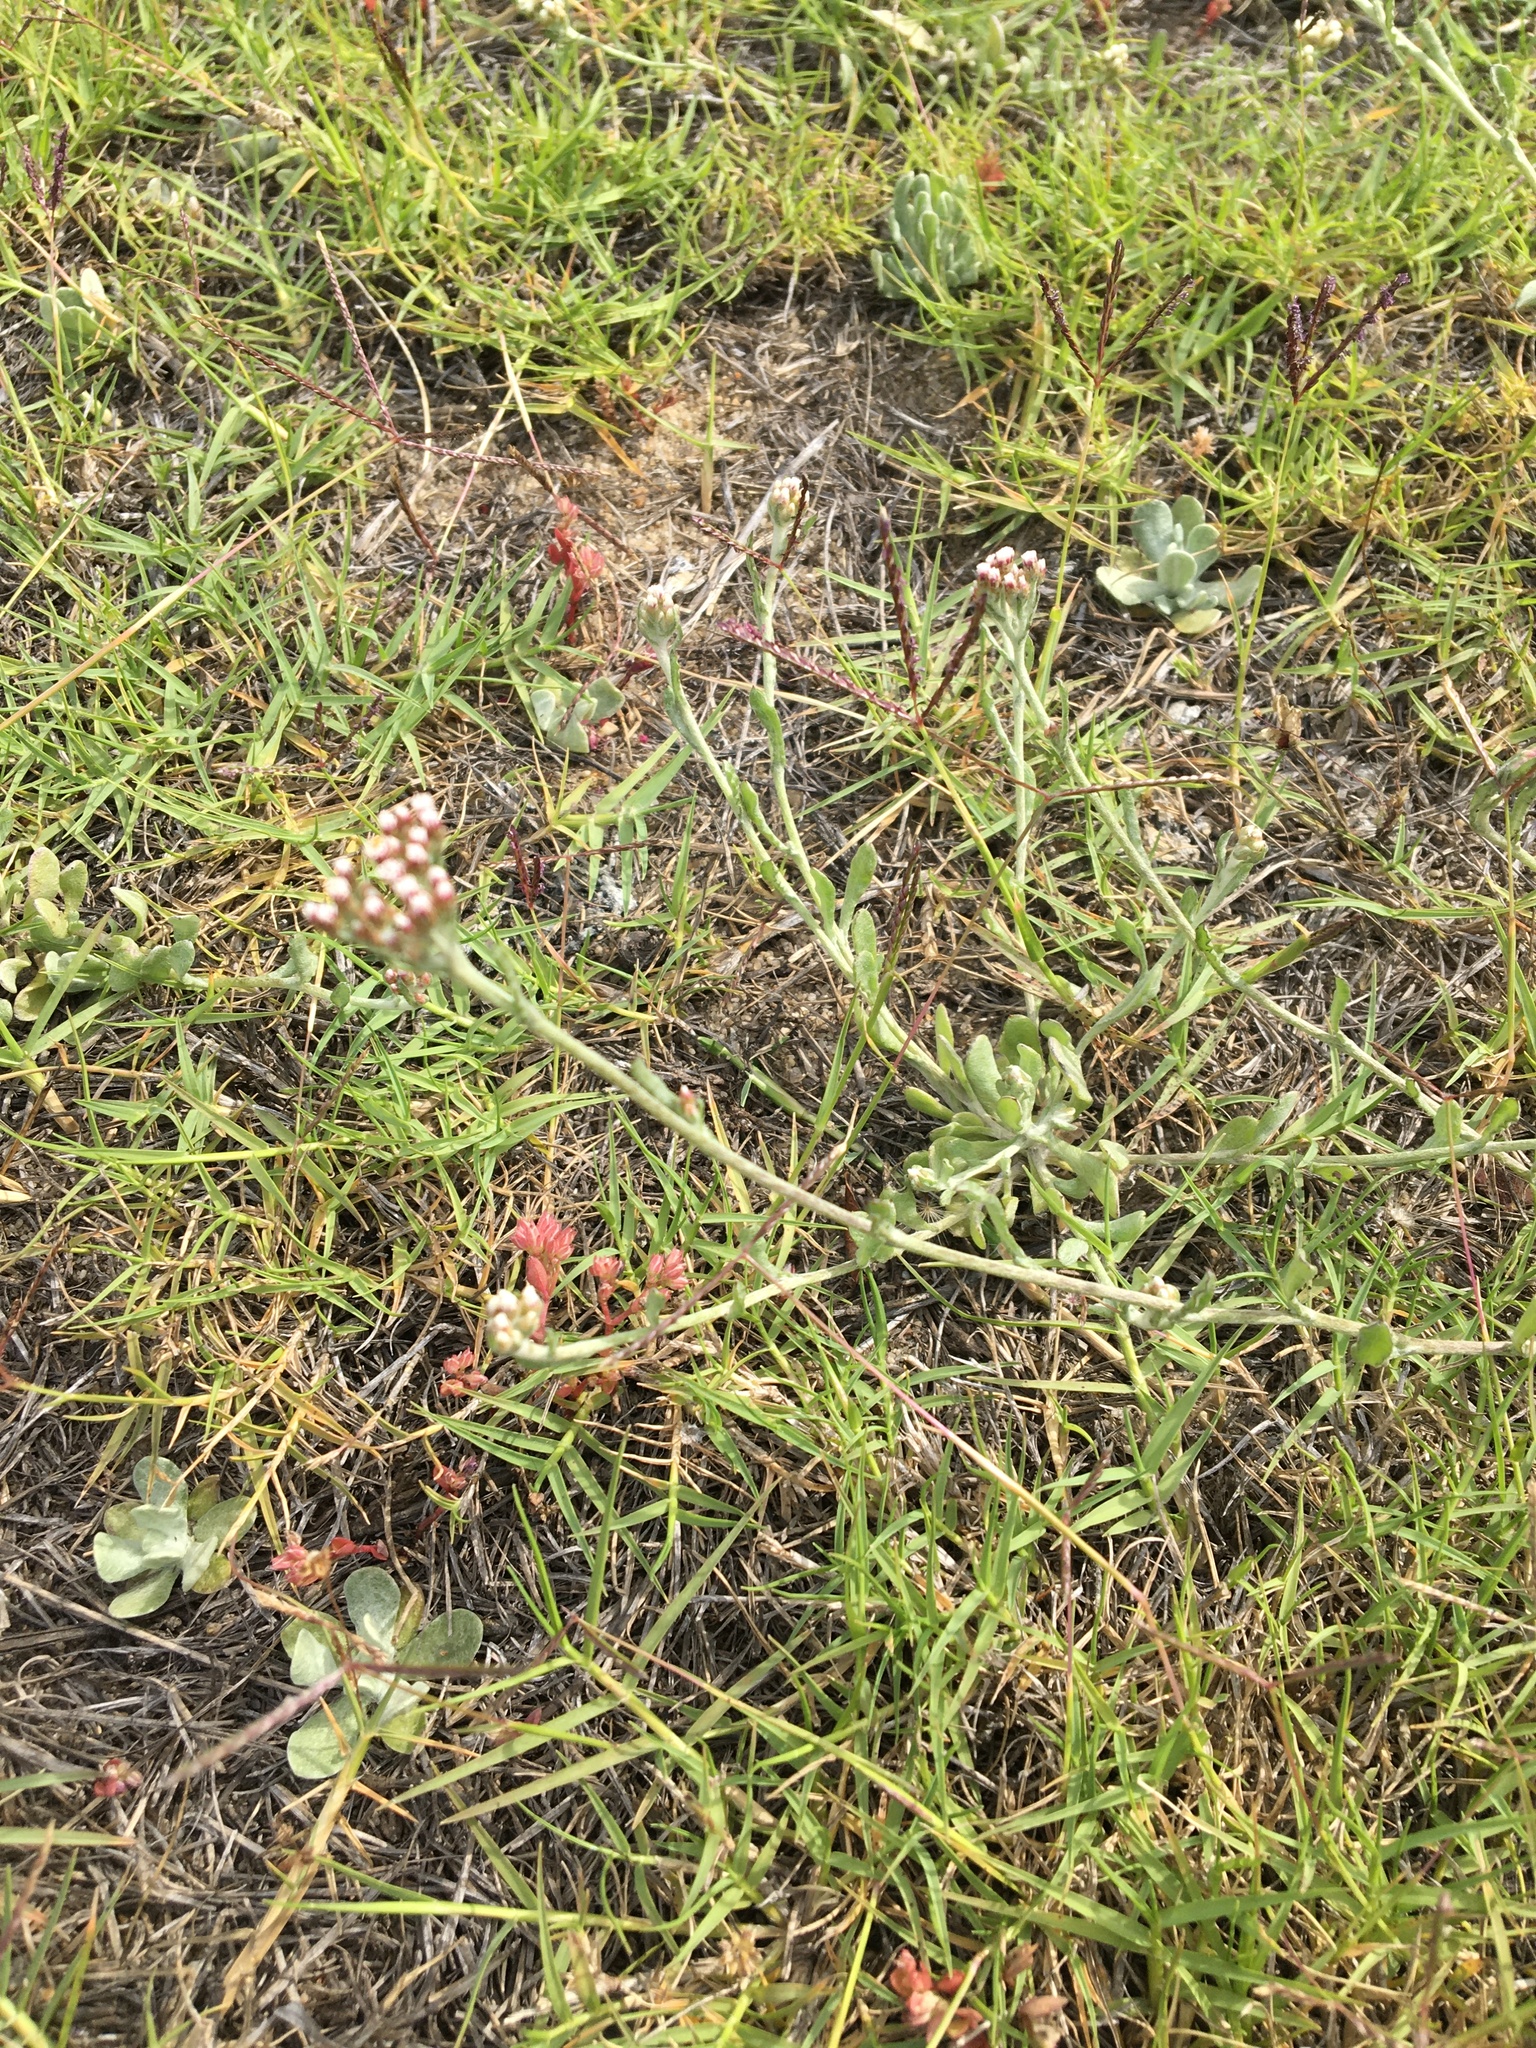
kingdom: Plantae
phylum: Tracheophyta
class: Magnoliopsida
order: Asterales
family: Asteraceae
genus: Helichrysum
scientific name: Helichrysum indicum
